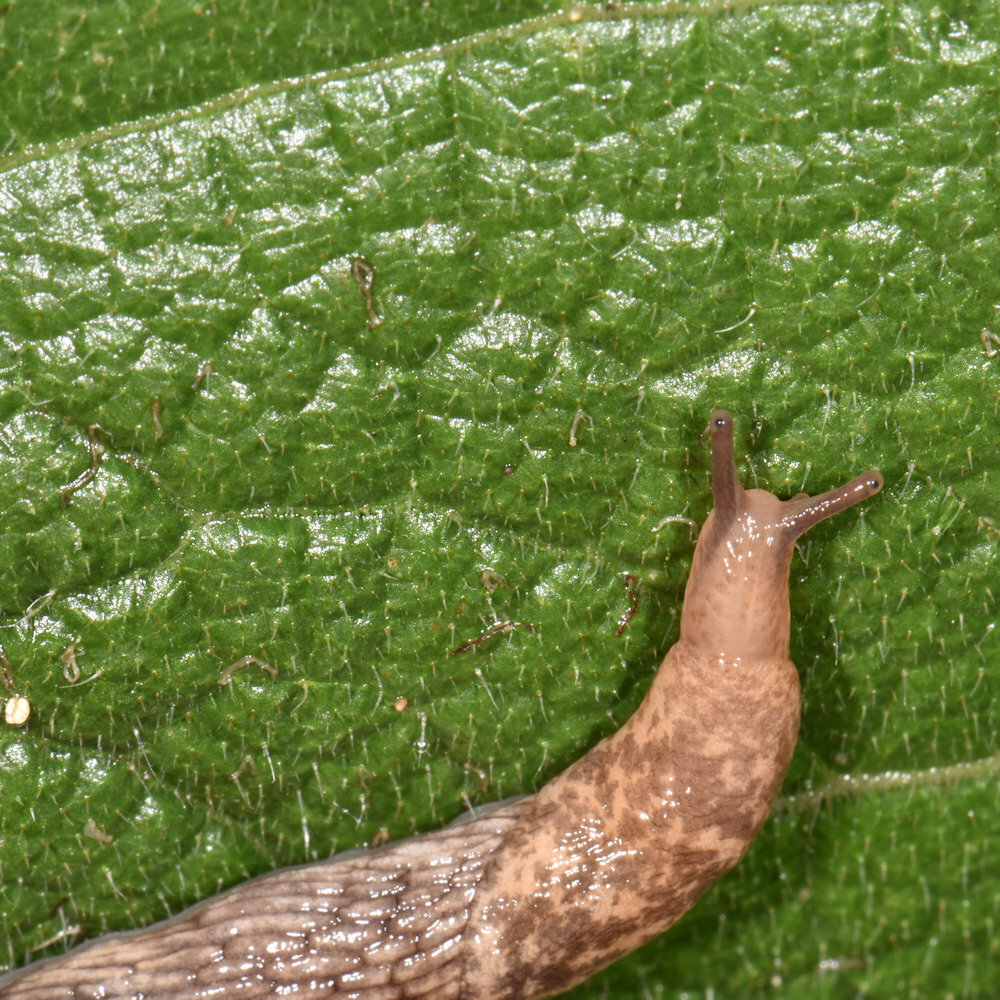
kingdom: Animalia
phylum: Mollusca
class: Gastropoda
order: Stylommatophora
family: Agriolimacidae
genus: Deroceras
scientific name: Deroceras reticulatum
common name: Gray field slug
